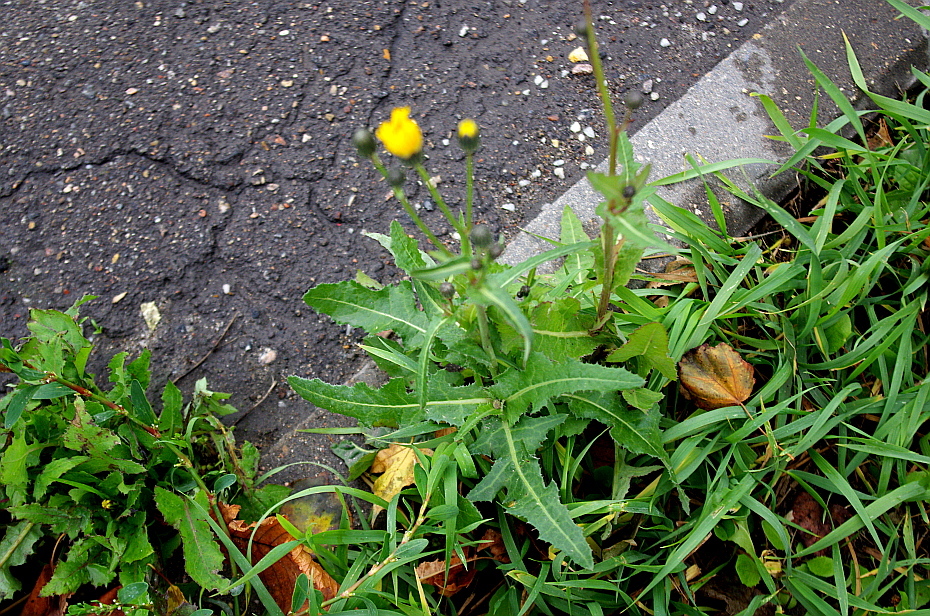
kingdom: Plantae
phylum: Tracheophyta
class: Magnoliopsida
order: Asterales
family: Asteraceae
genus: Sonchus
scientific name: Sonchus arvensis
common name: Perennial sow-thistle
